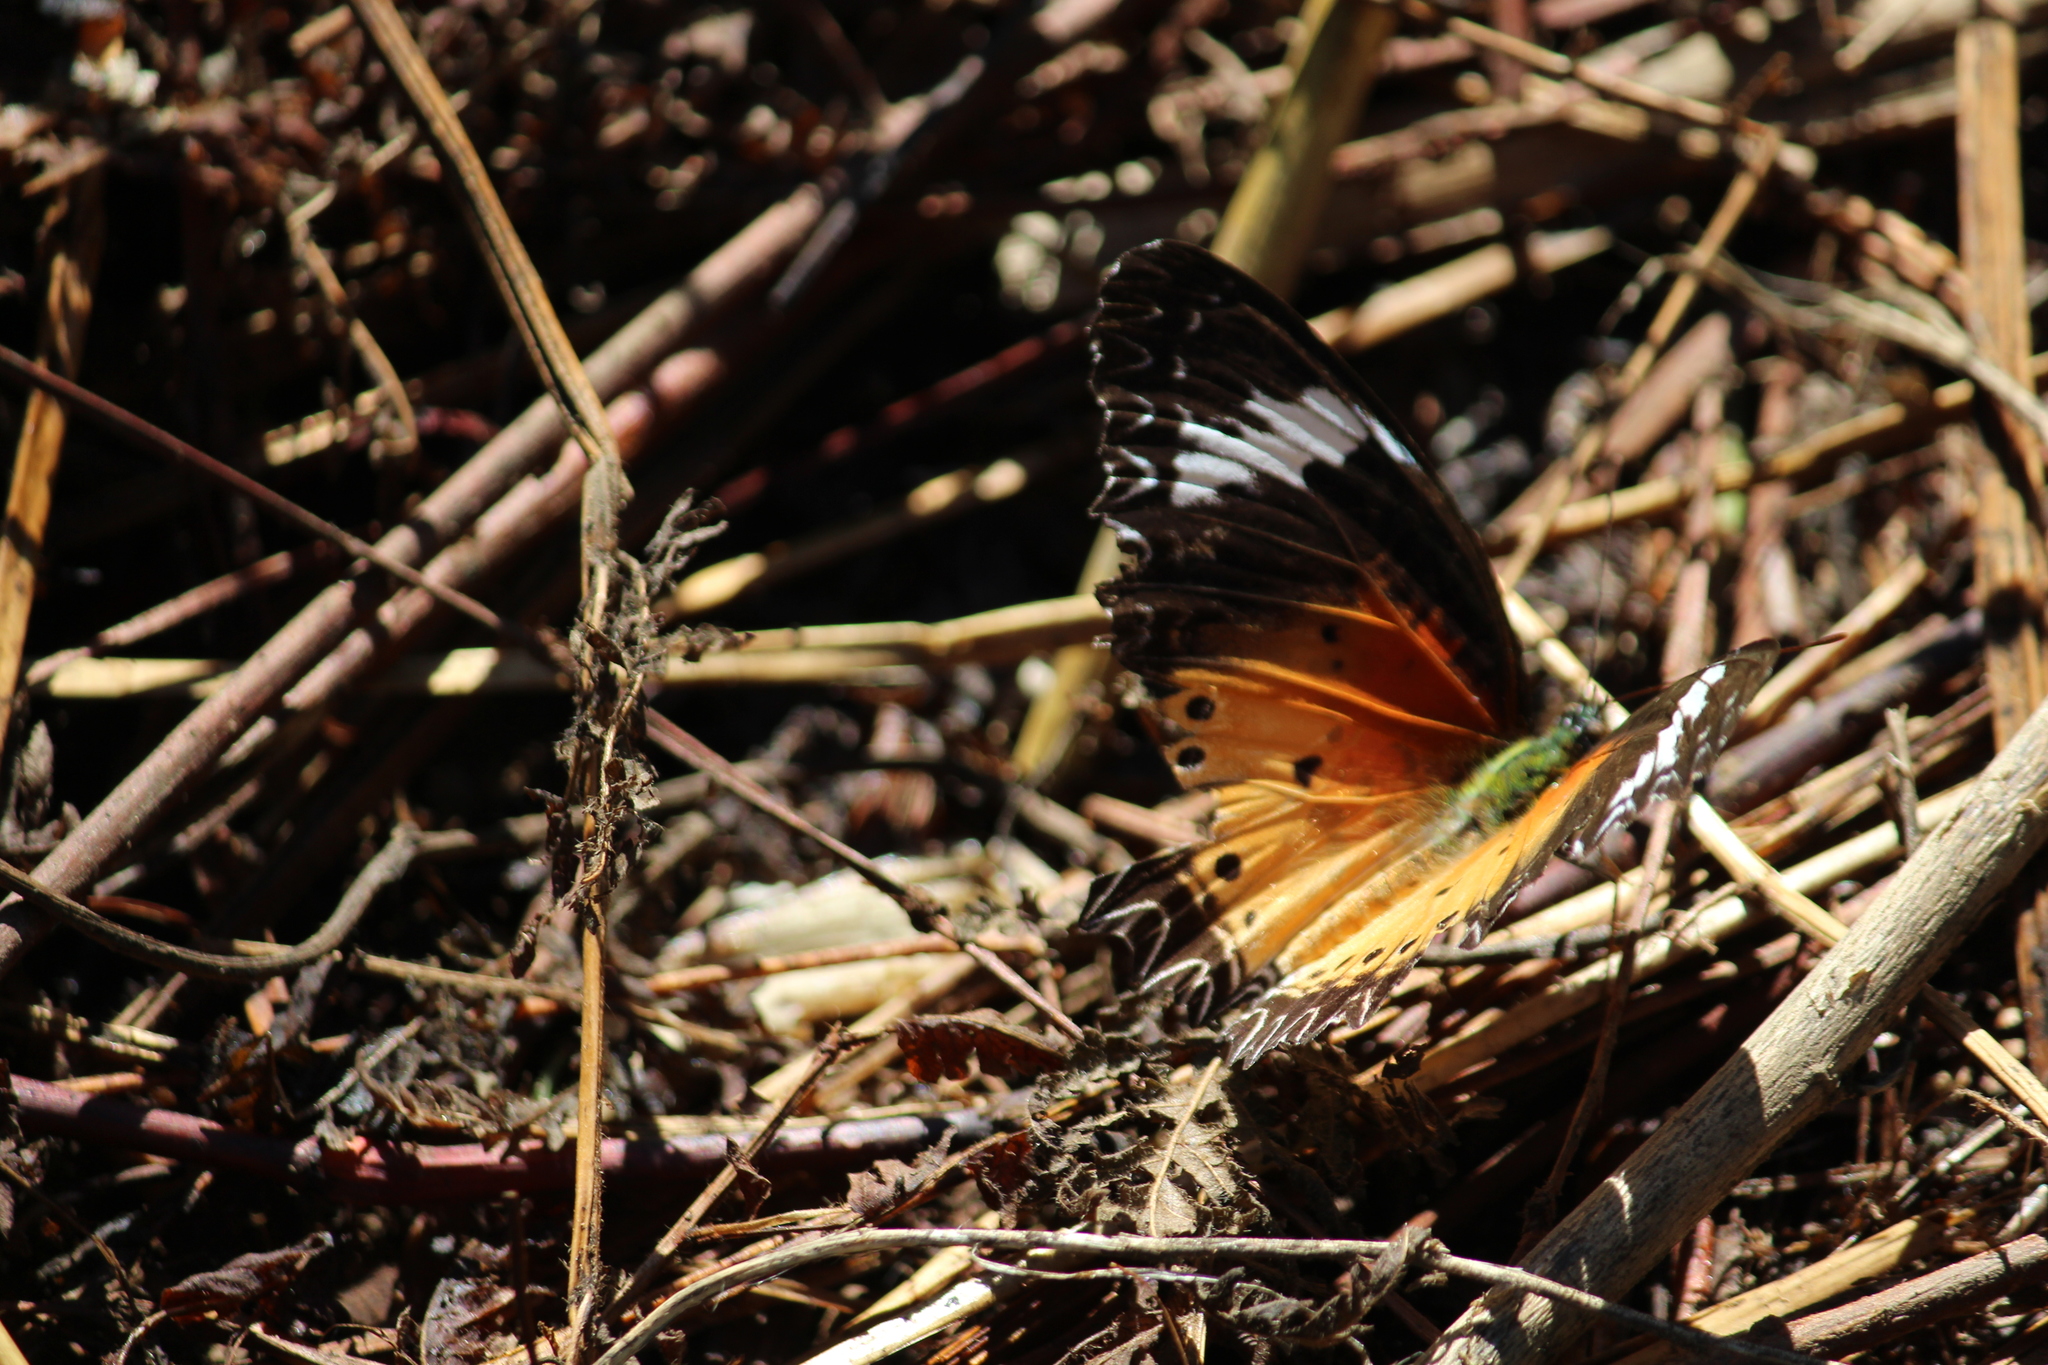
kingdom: Animalia
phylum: Arthropoda
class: Insecta
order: Lepidoptera
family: Nymphalidae
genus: Cethosia
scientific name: Cethosia cyane
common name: Leopard lacewing butterfly
